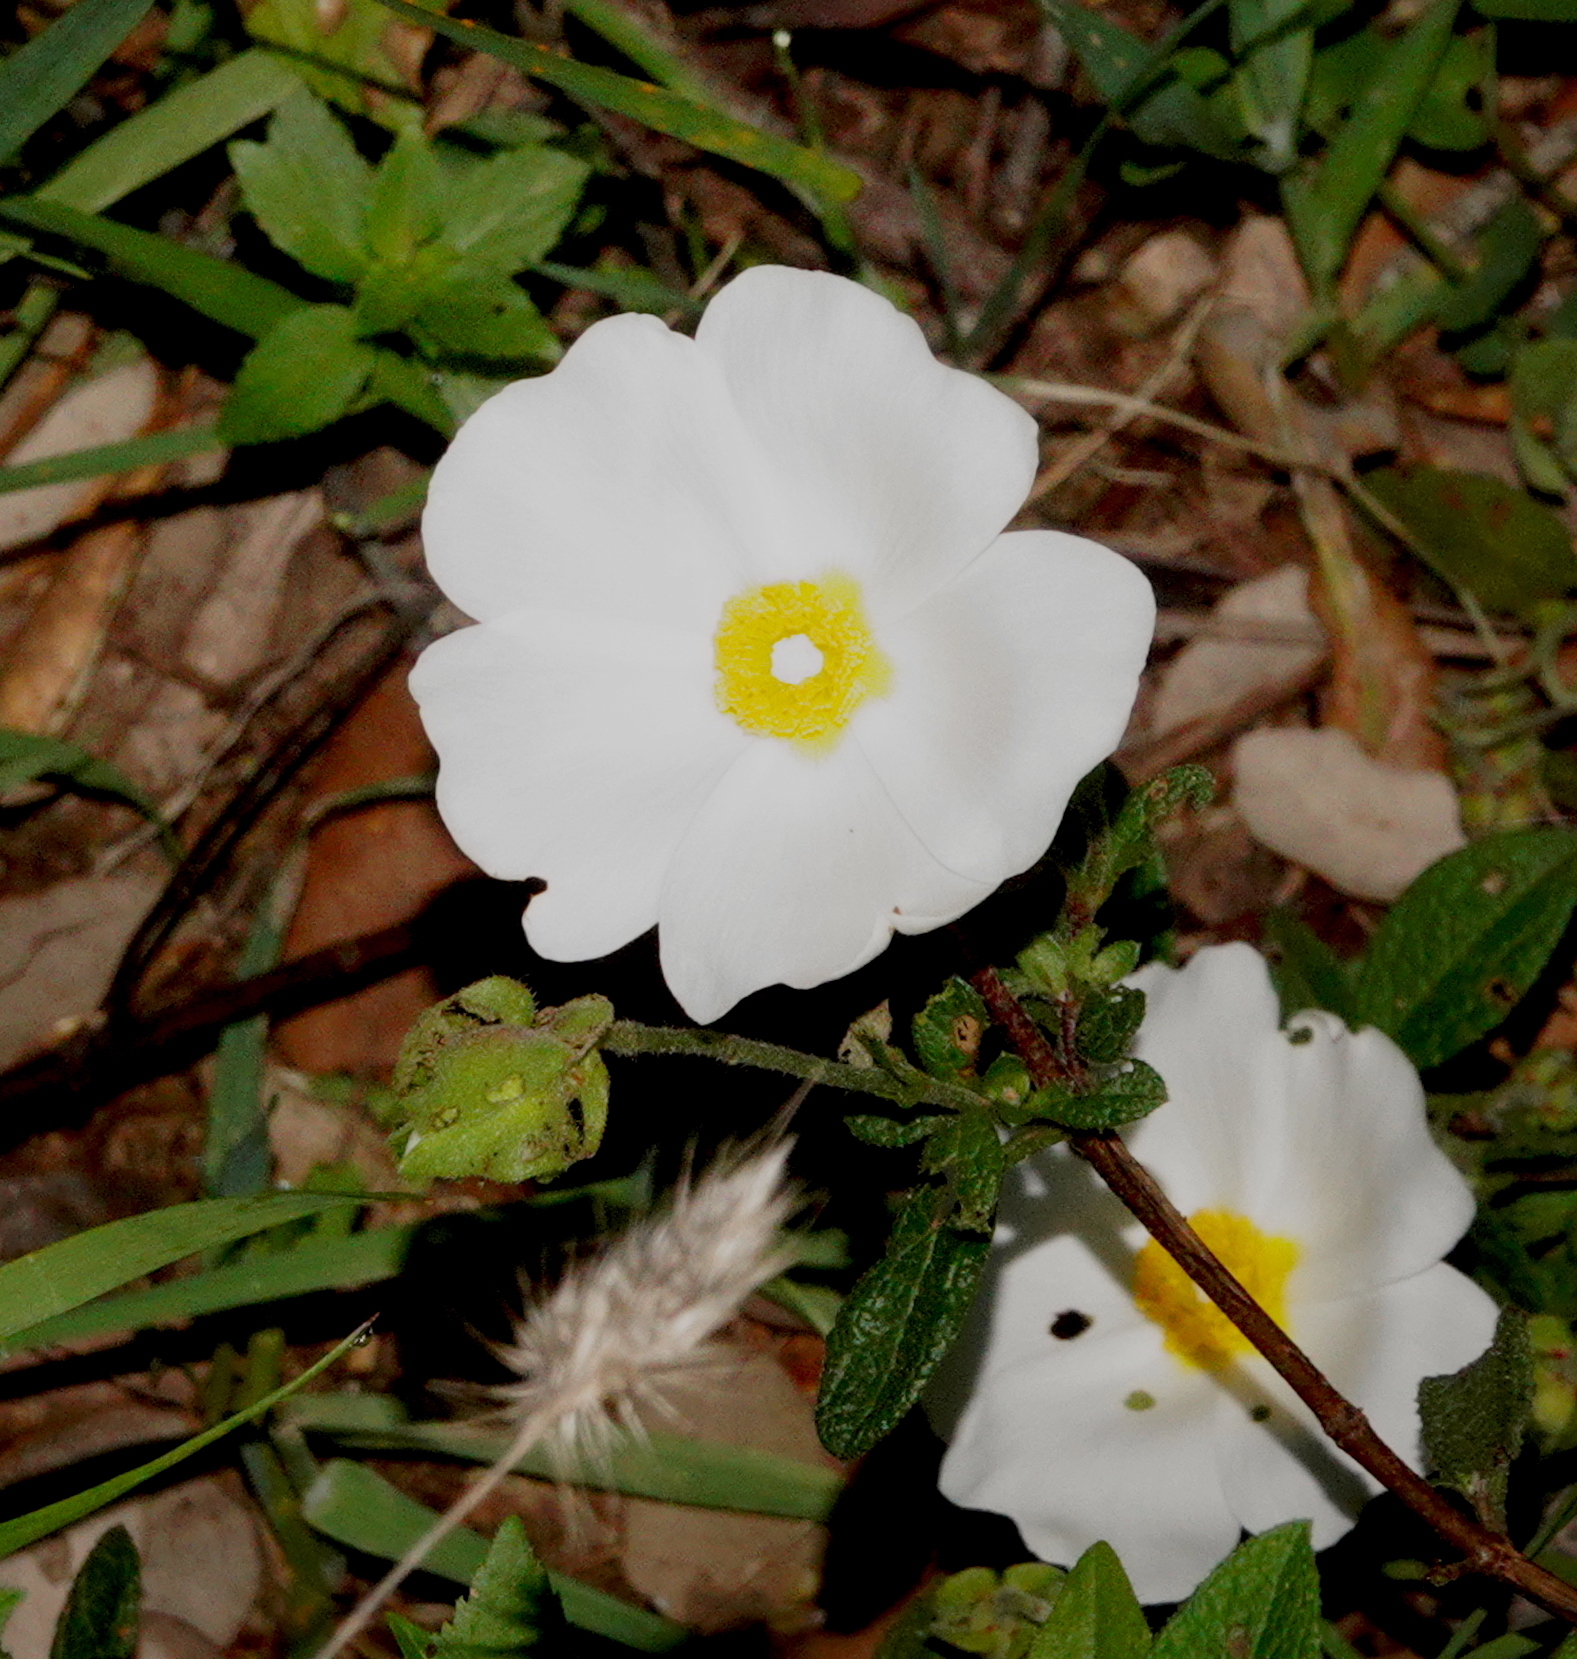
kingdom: Plantae
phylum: Tracheophyta
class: Magnoliopsida
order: Malvales
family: Cistaceae
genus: Cistus
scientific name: Cistus salviifolius
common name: Salvia cistus
